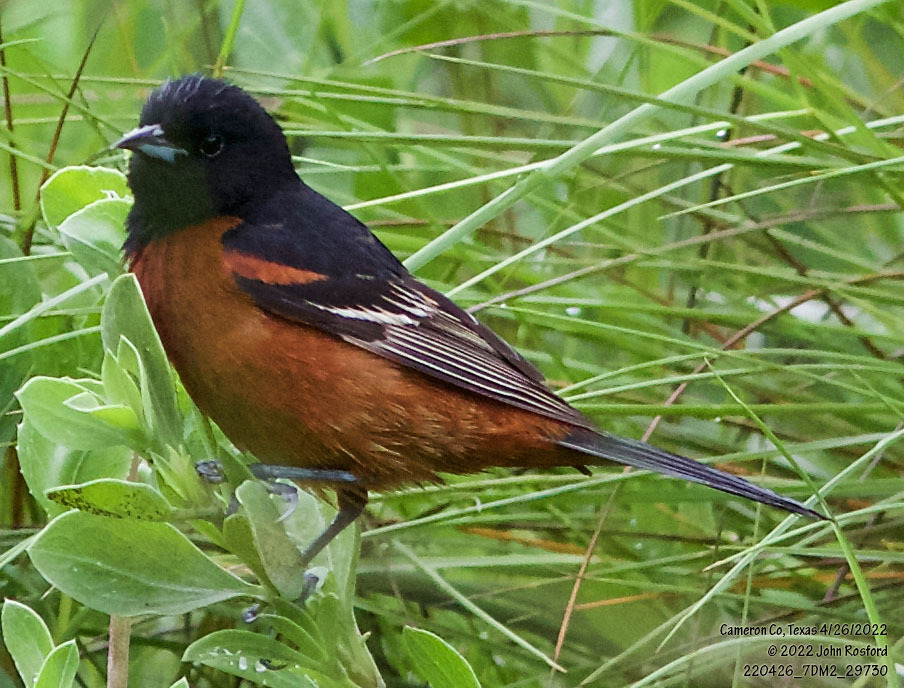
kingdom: Animalia
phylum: Chordata
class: Aves
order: Passeriformes
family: Icteridae
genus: Icterus
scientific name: Icterus spurius
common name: Orchard oriole
